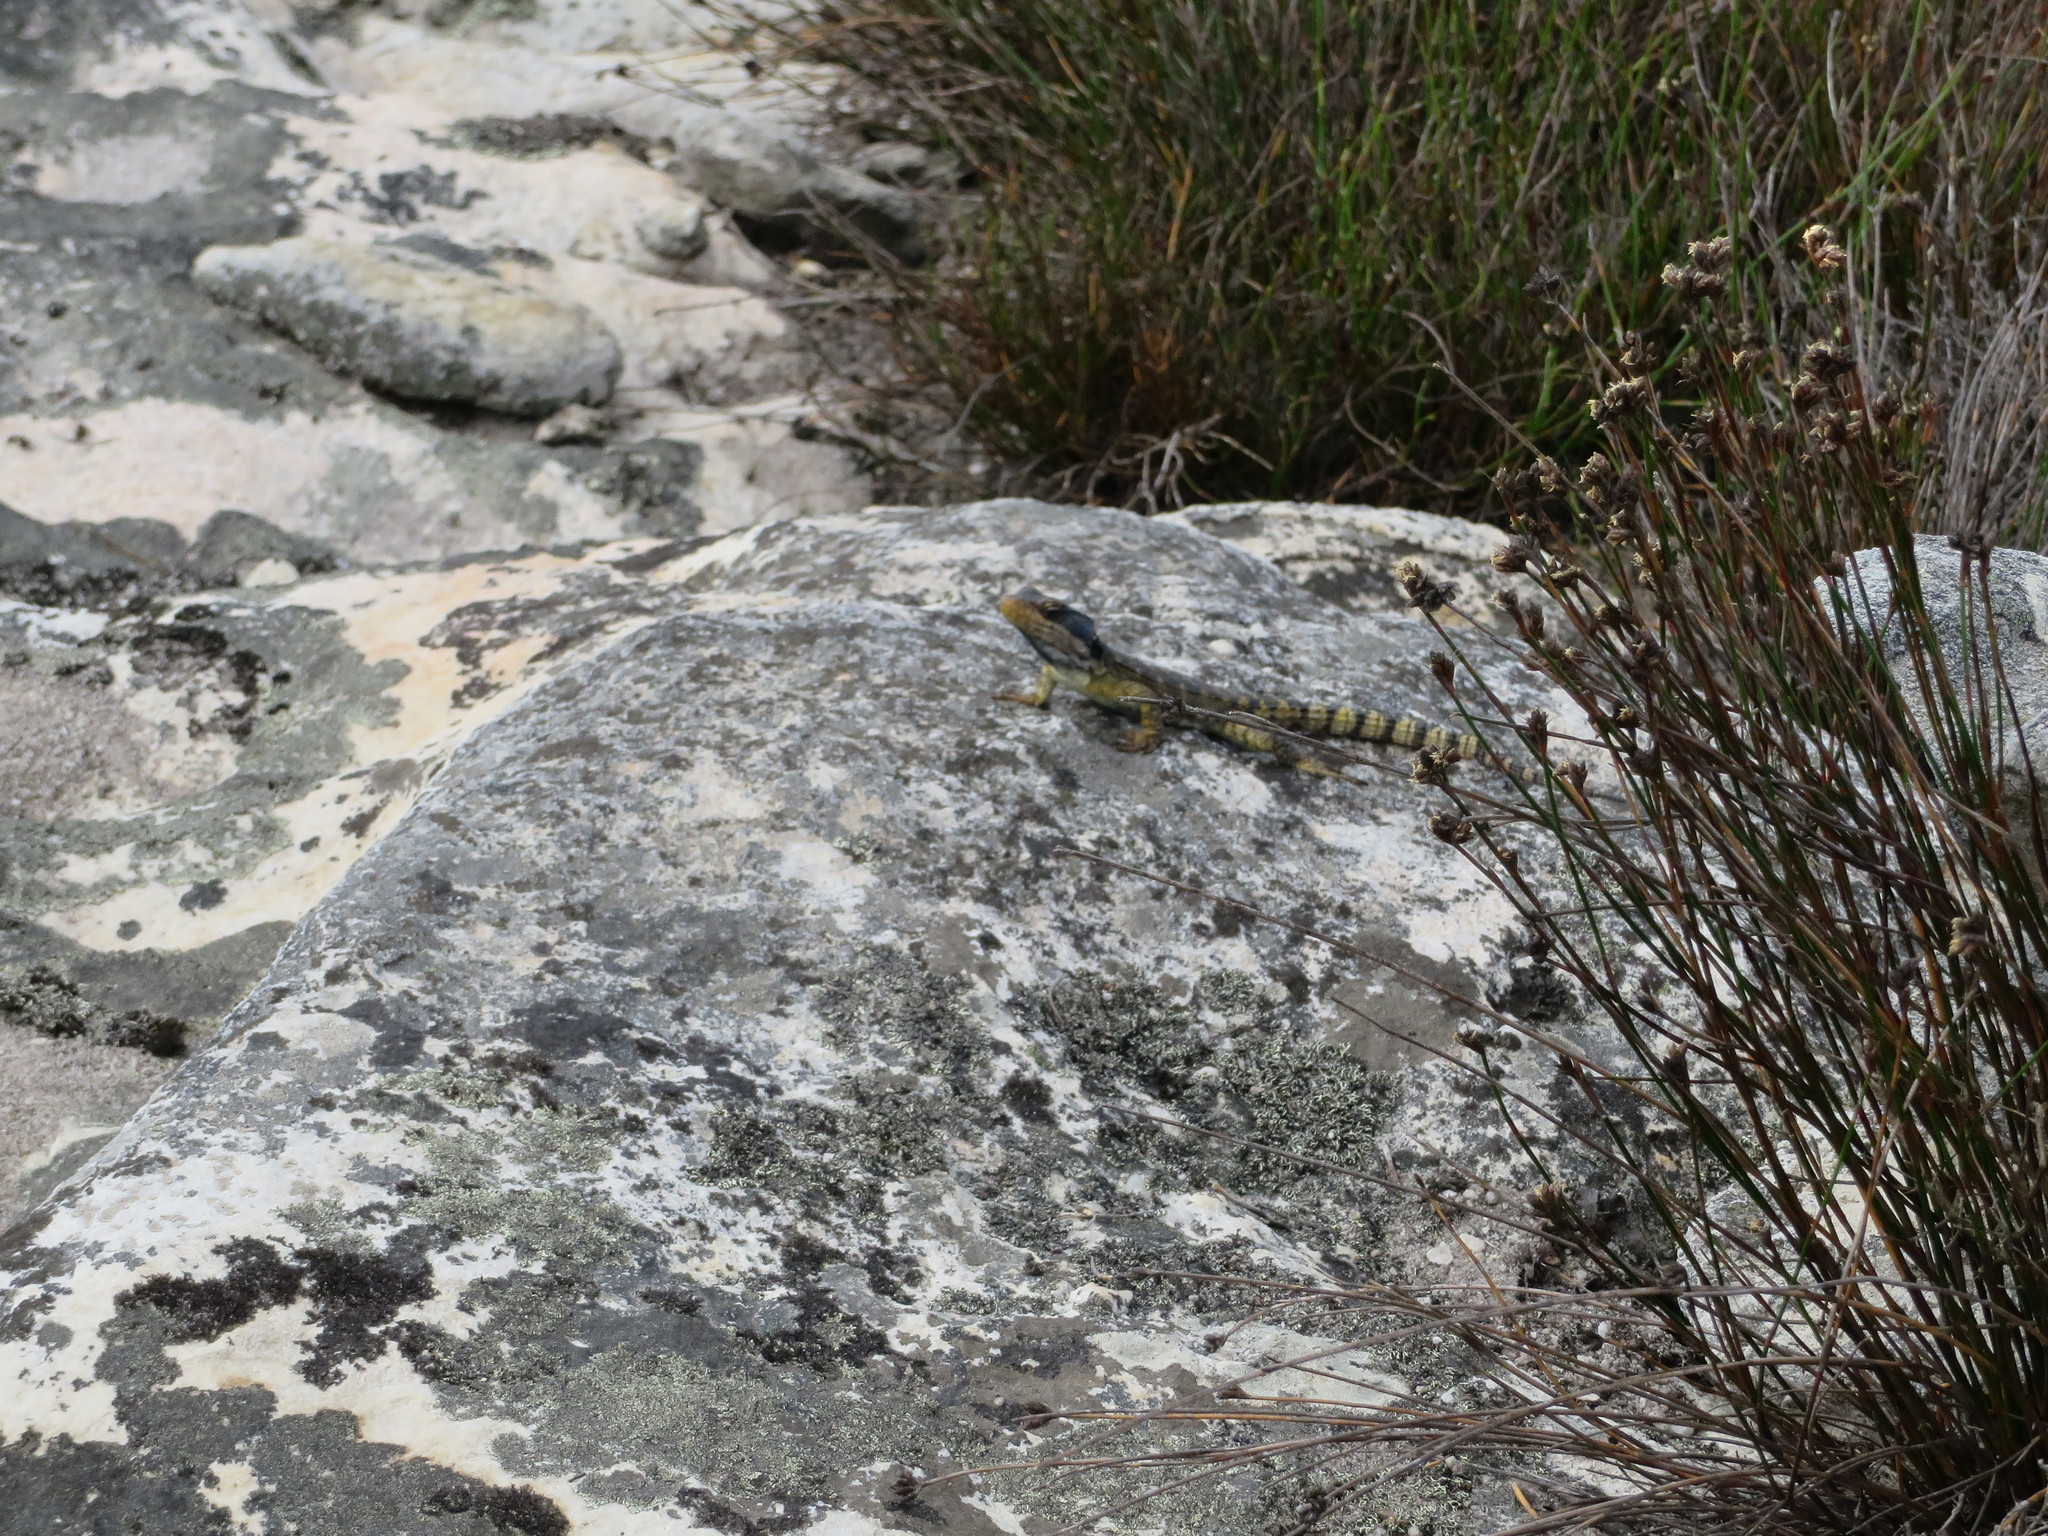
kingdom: Animalia
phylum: Chordata
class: Squamata
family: Cordylidae
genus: Pseudocordylus
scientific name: Pseudocordylus microlepidotus
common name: Cape crag lizard
